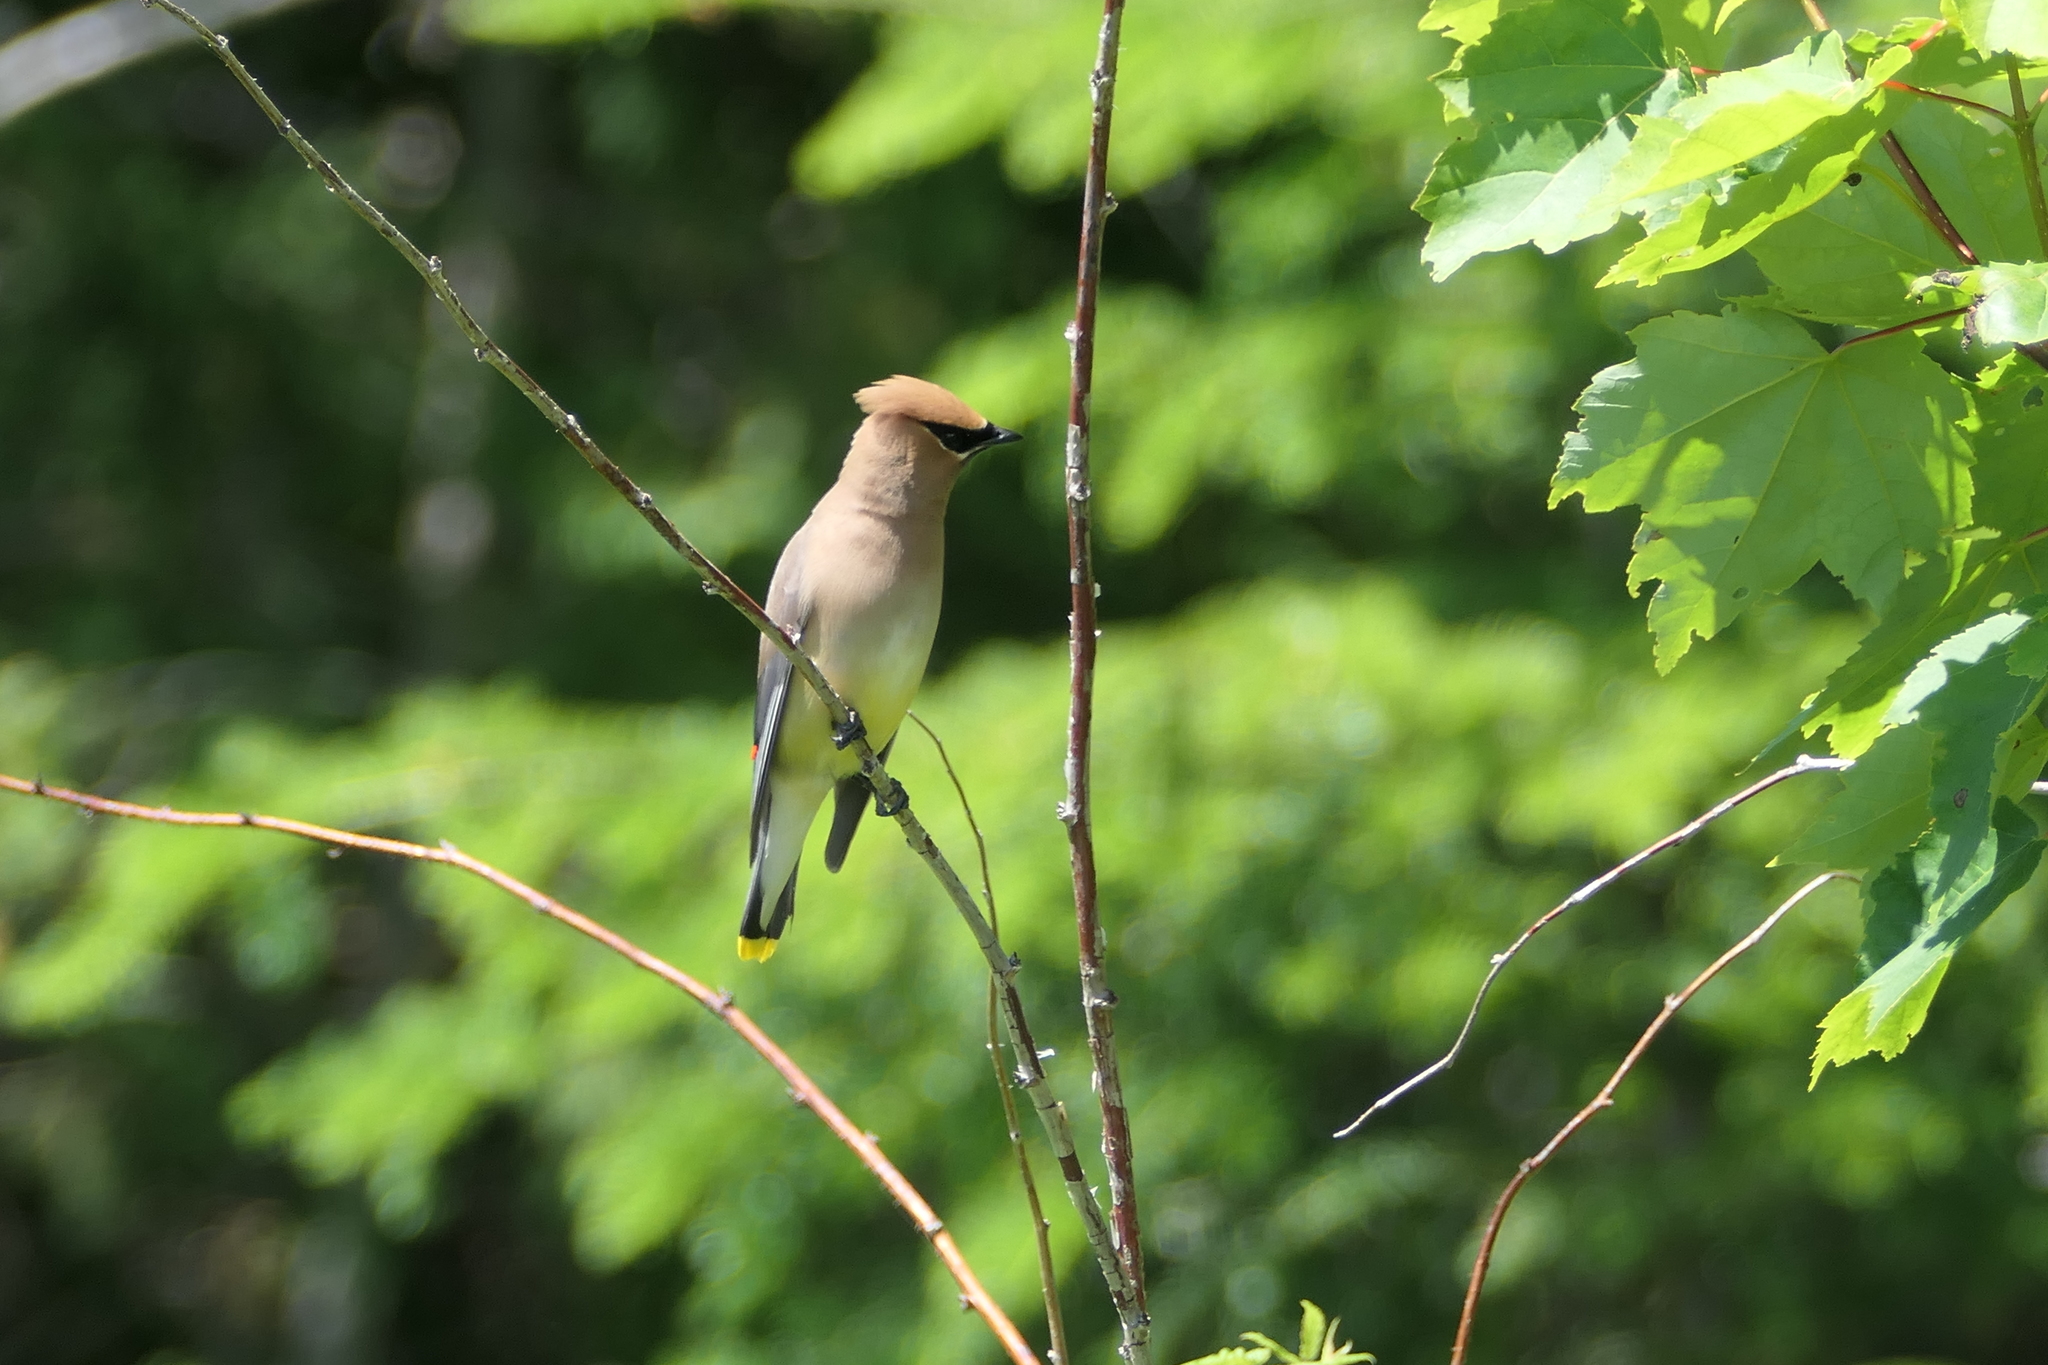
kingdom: Animalia
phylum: Chordata
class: Aves
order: Passeriformes
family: Bombycillidae
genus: Bombycilla
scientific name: Bombycilla cedrorum
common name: Cedar waxwing
